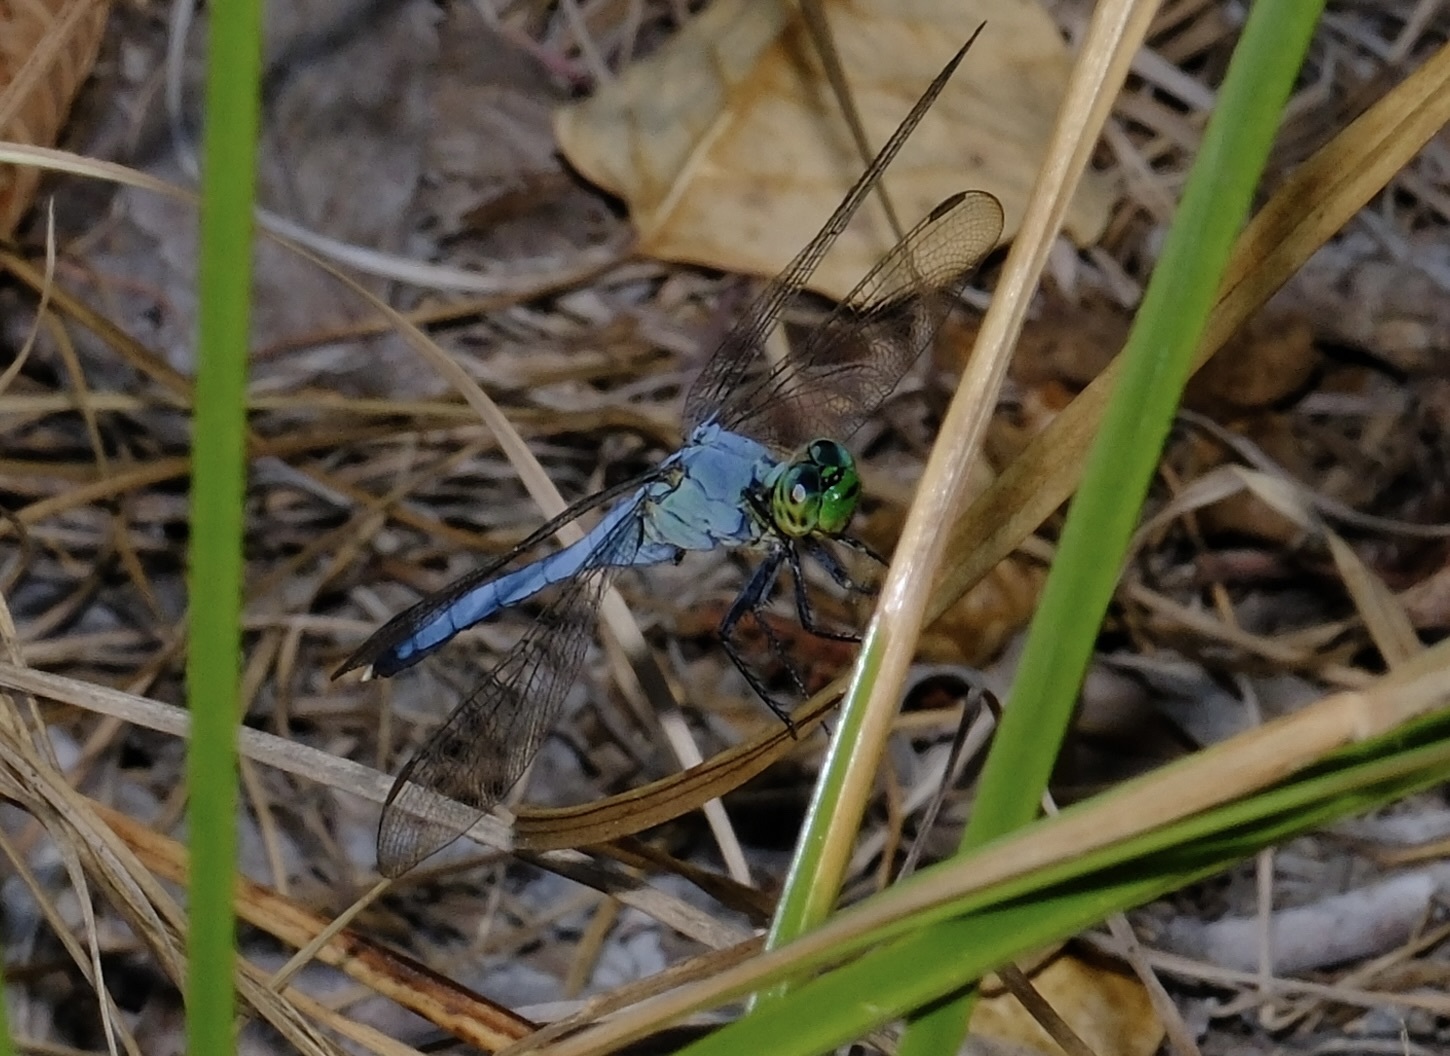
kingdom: Animalia
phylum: Arthropoda
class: Insecta
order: Odonata
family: Libellulidae
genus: Erythemis
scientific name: Erythemis simplicicollis
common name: Eastern pondhawk
